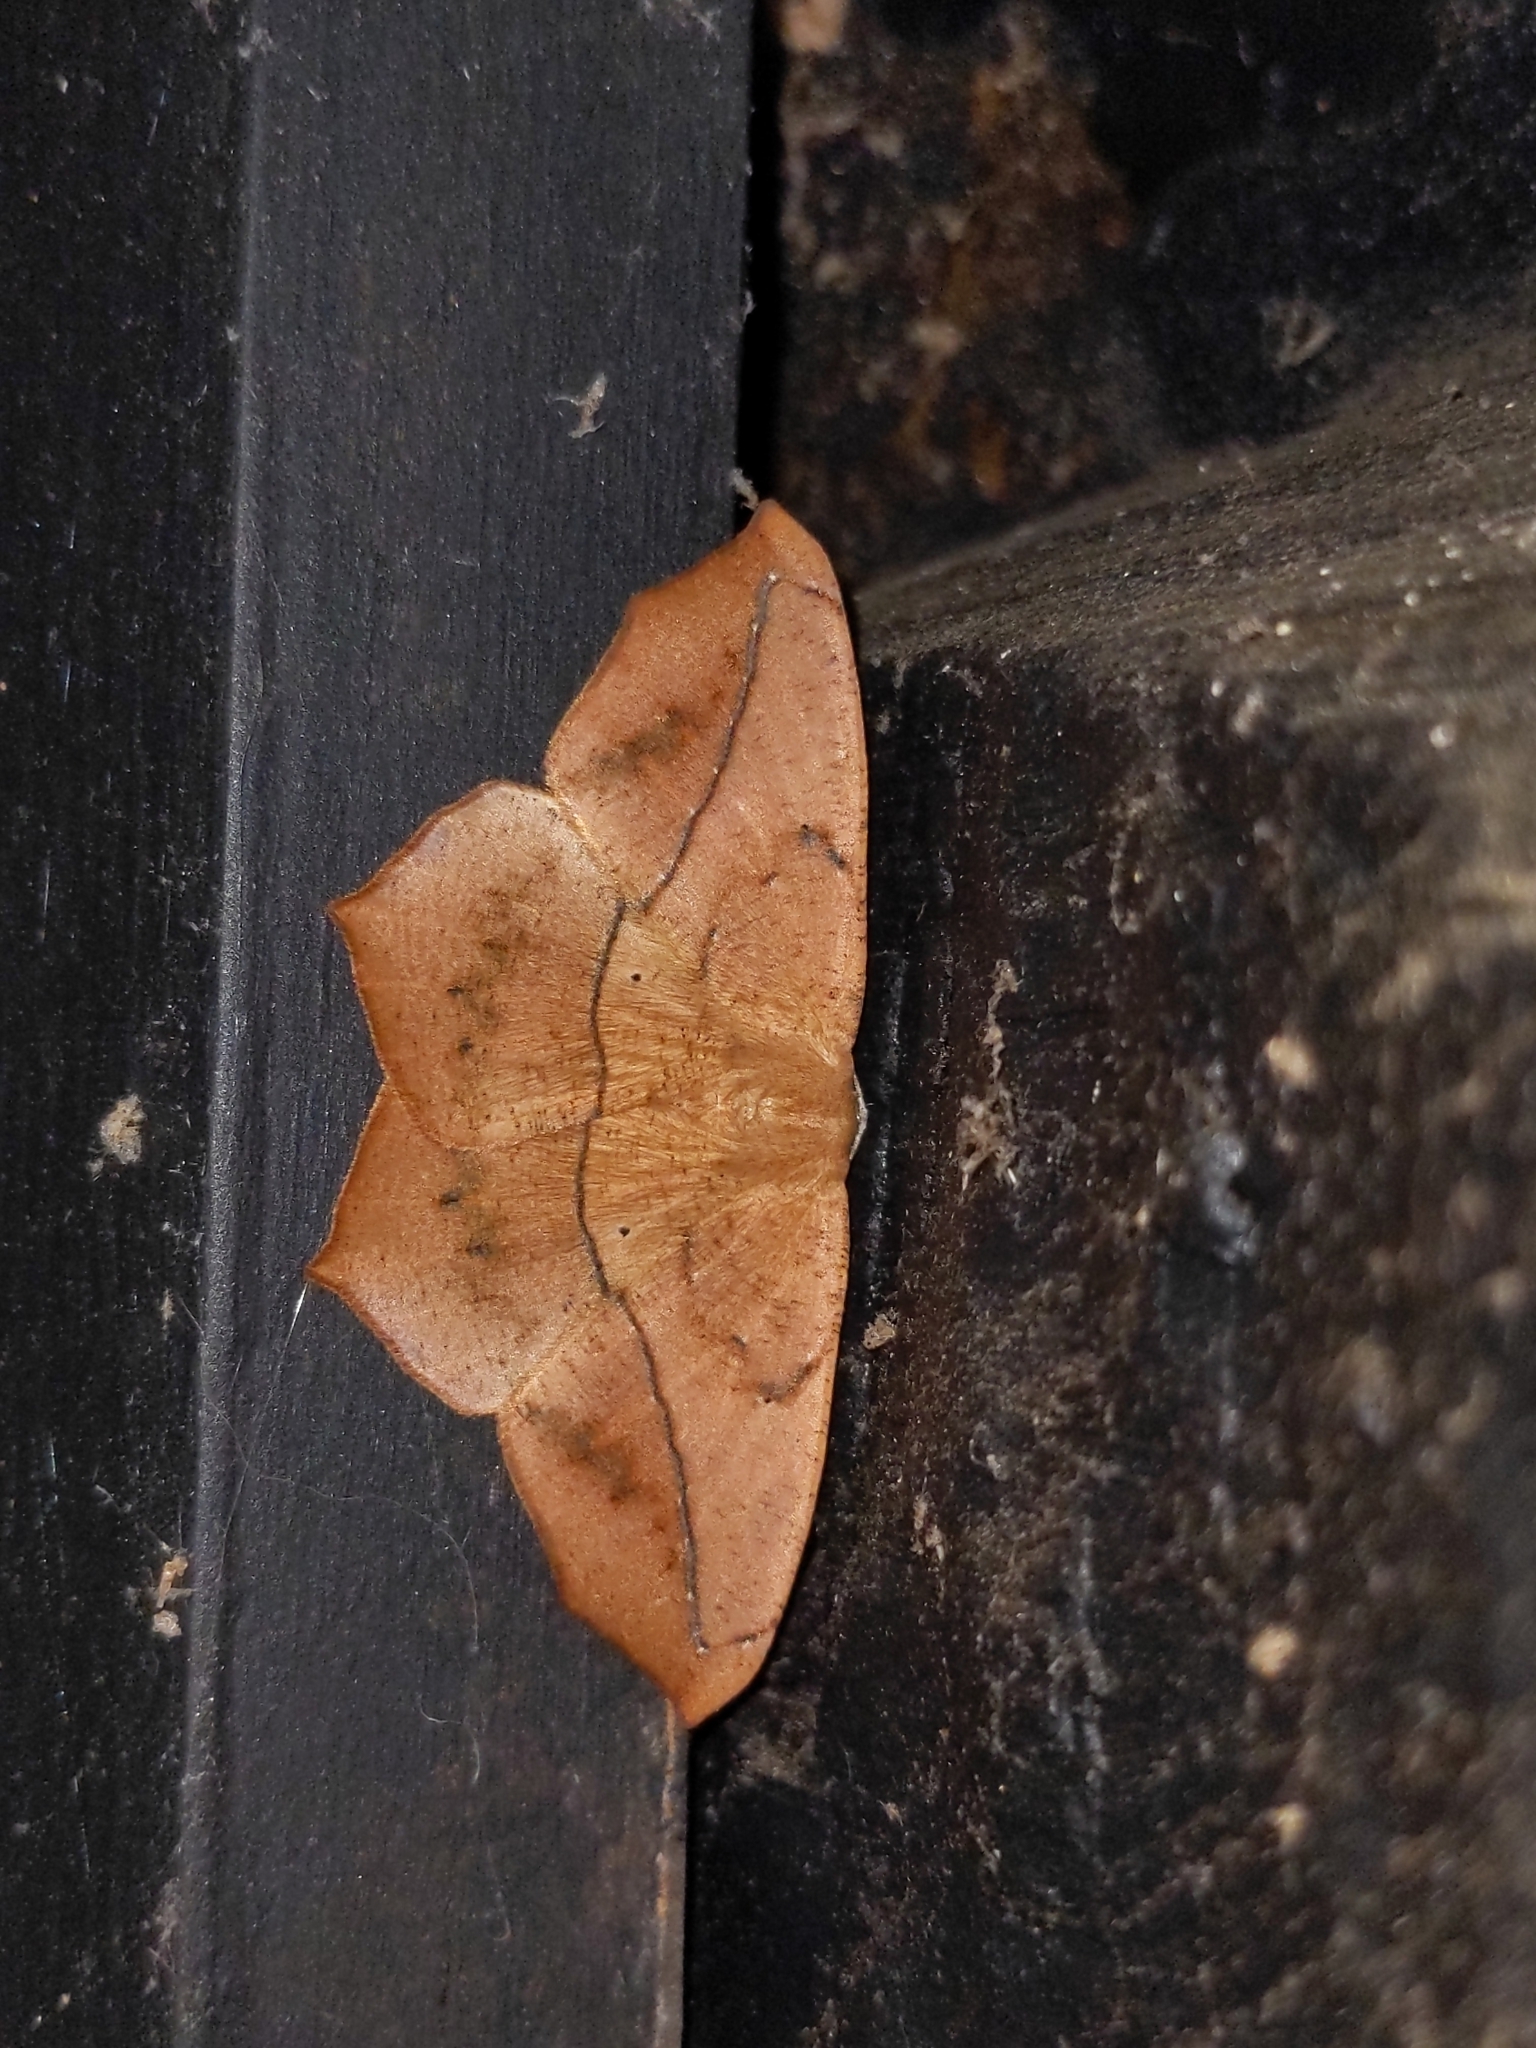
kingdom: Animalia
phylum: Arthropoda
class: Insecta
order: Lepidoptera
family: Geometridae
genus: Prochoerodes
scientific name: Prochoerodes lineola
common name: Large maple spanworm
